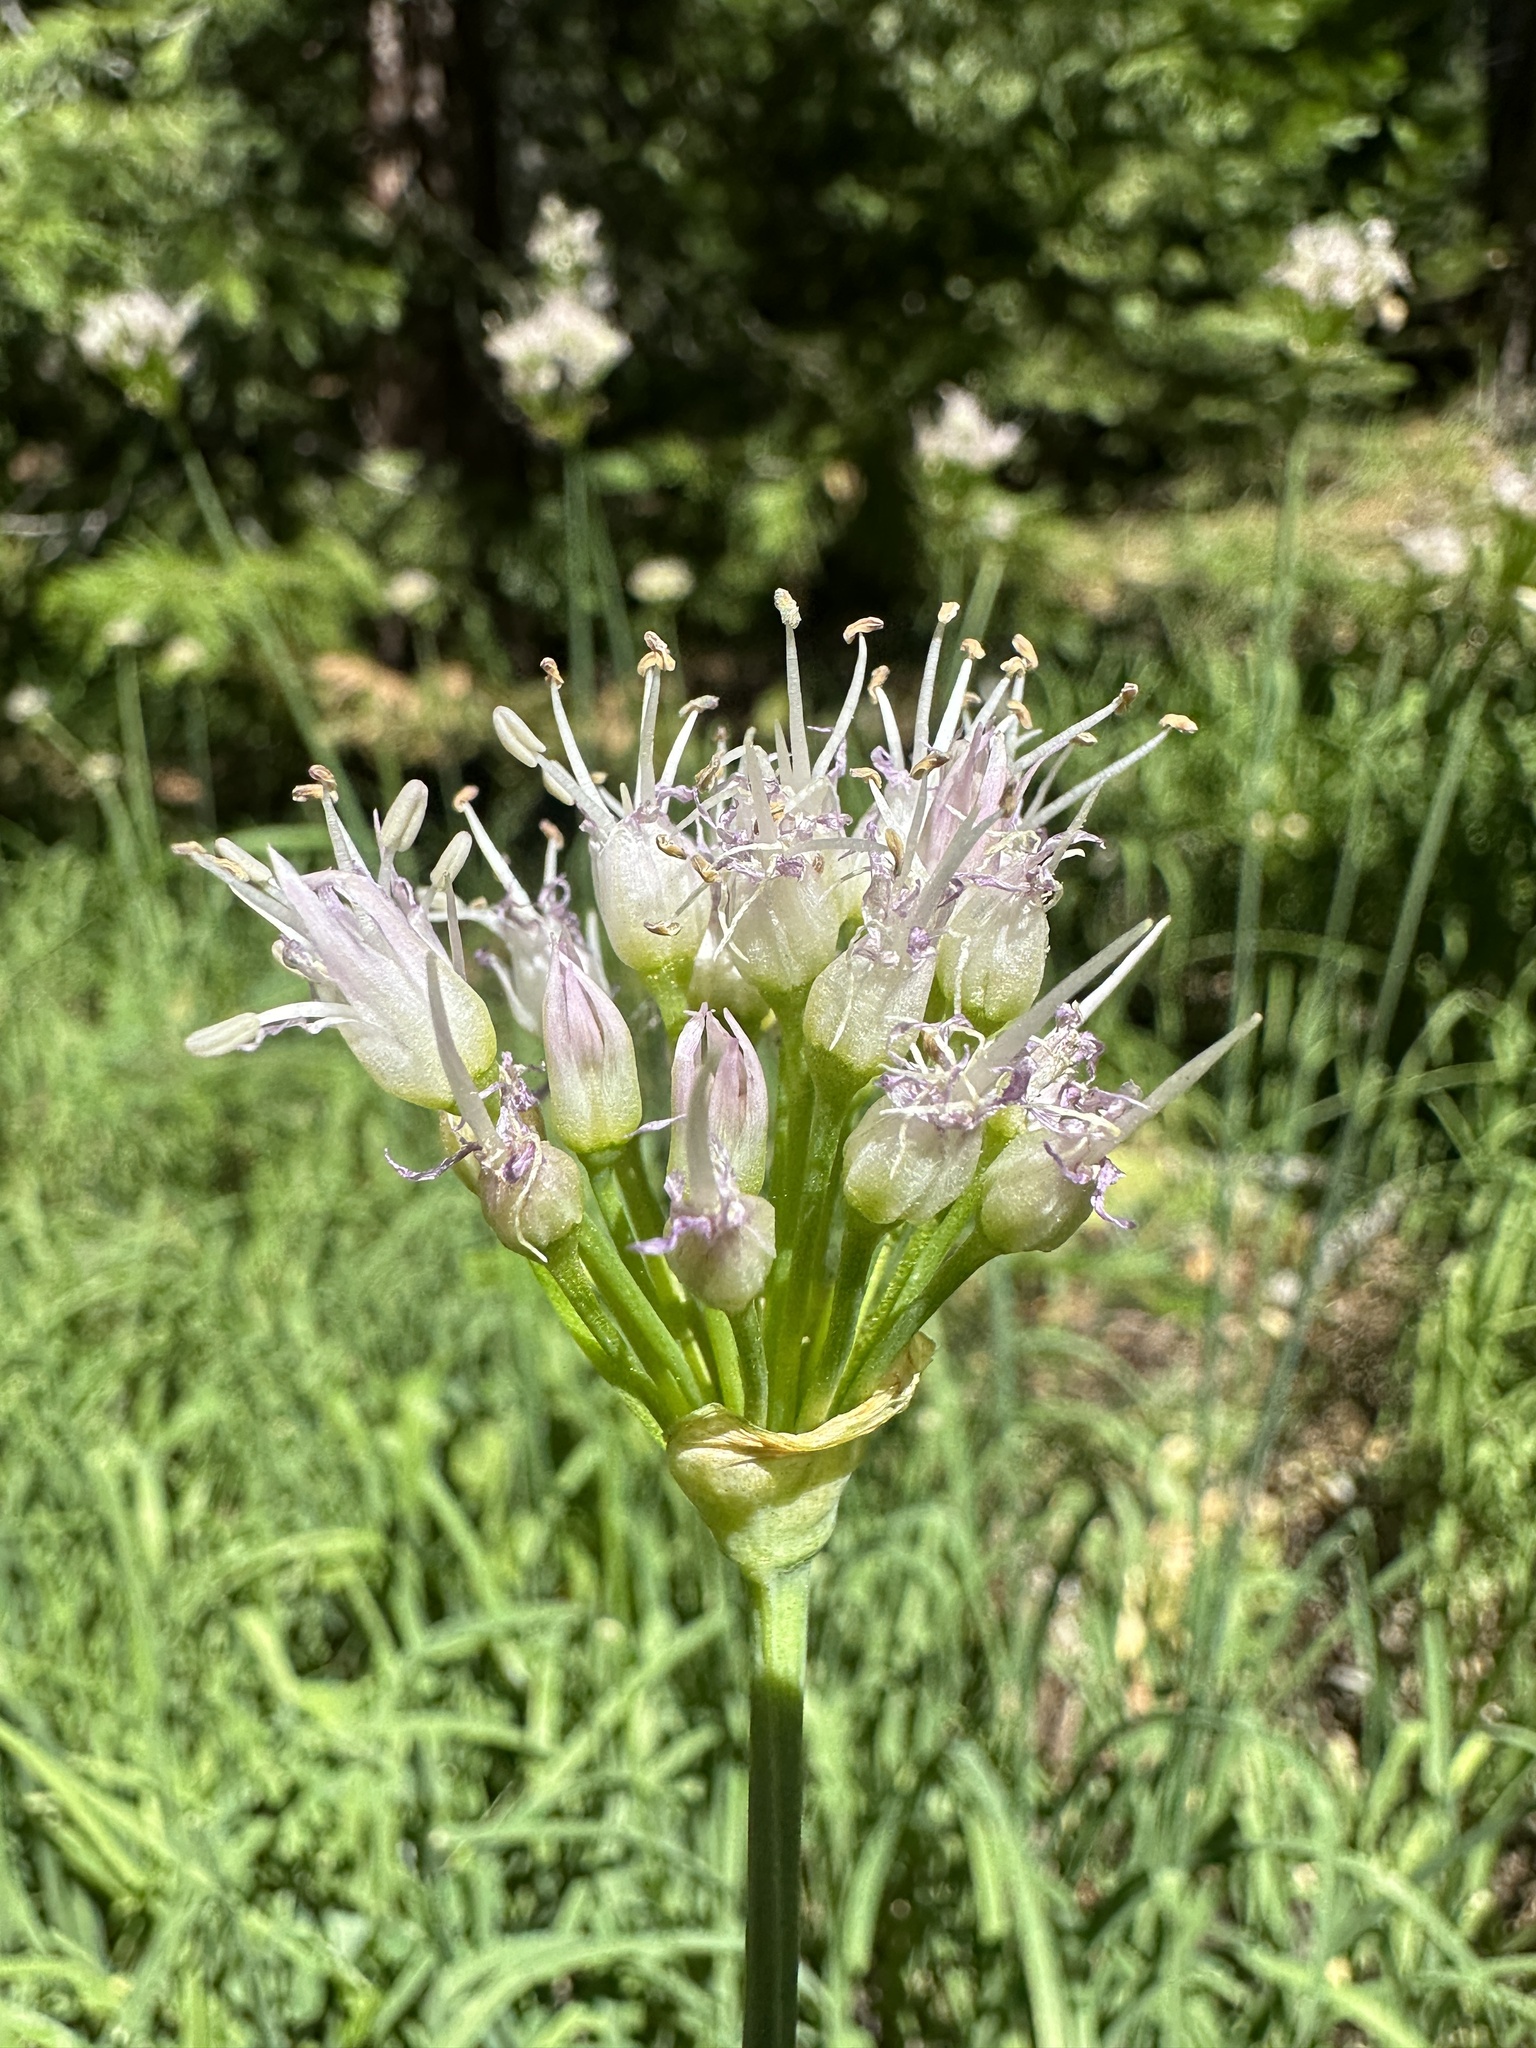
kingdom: Plantae
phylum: Tracheophyta
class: Liliopsida
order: Asparagales
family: Amaryllidaceae
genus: Allium
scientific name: Allium validum
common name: Pacific mountain onion
